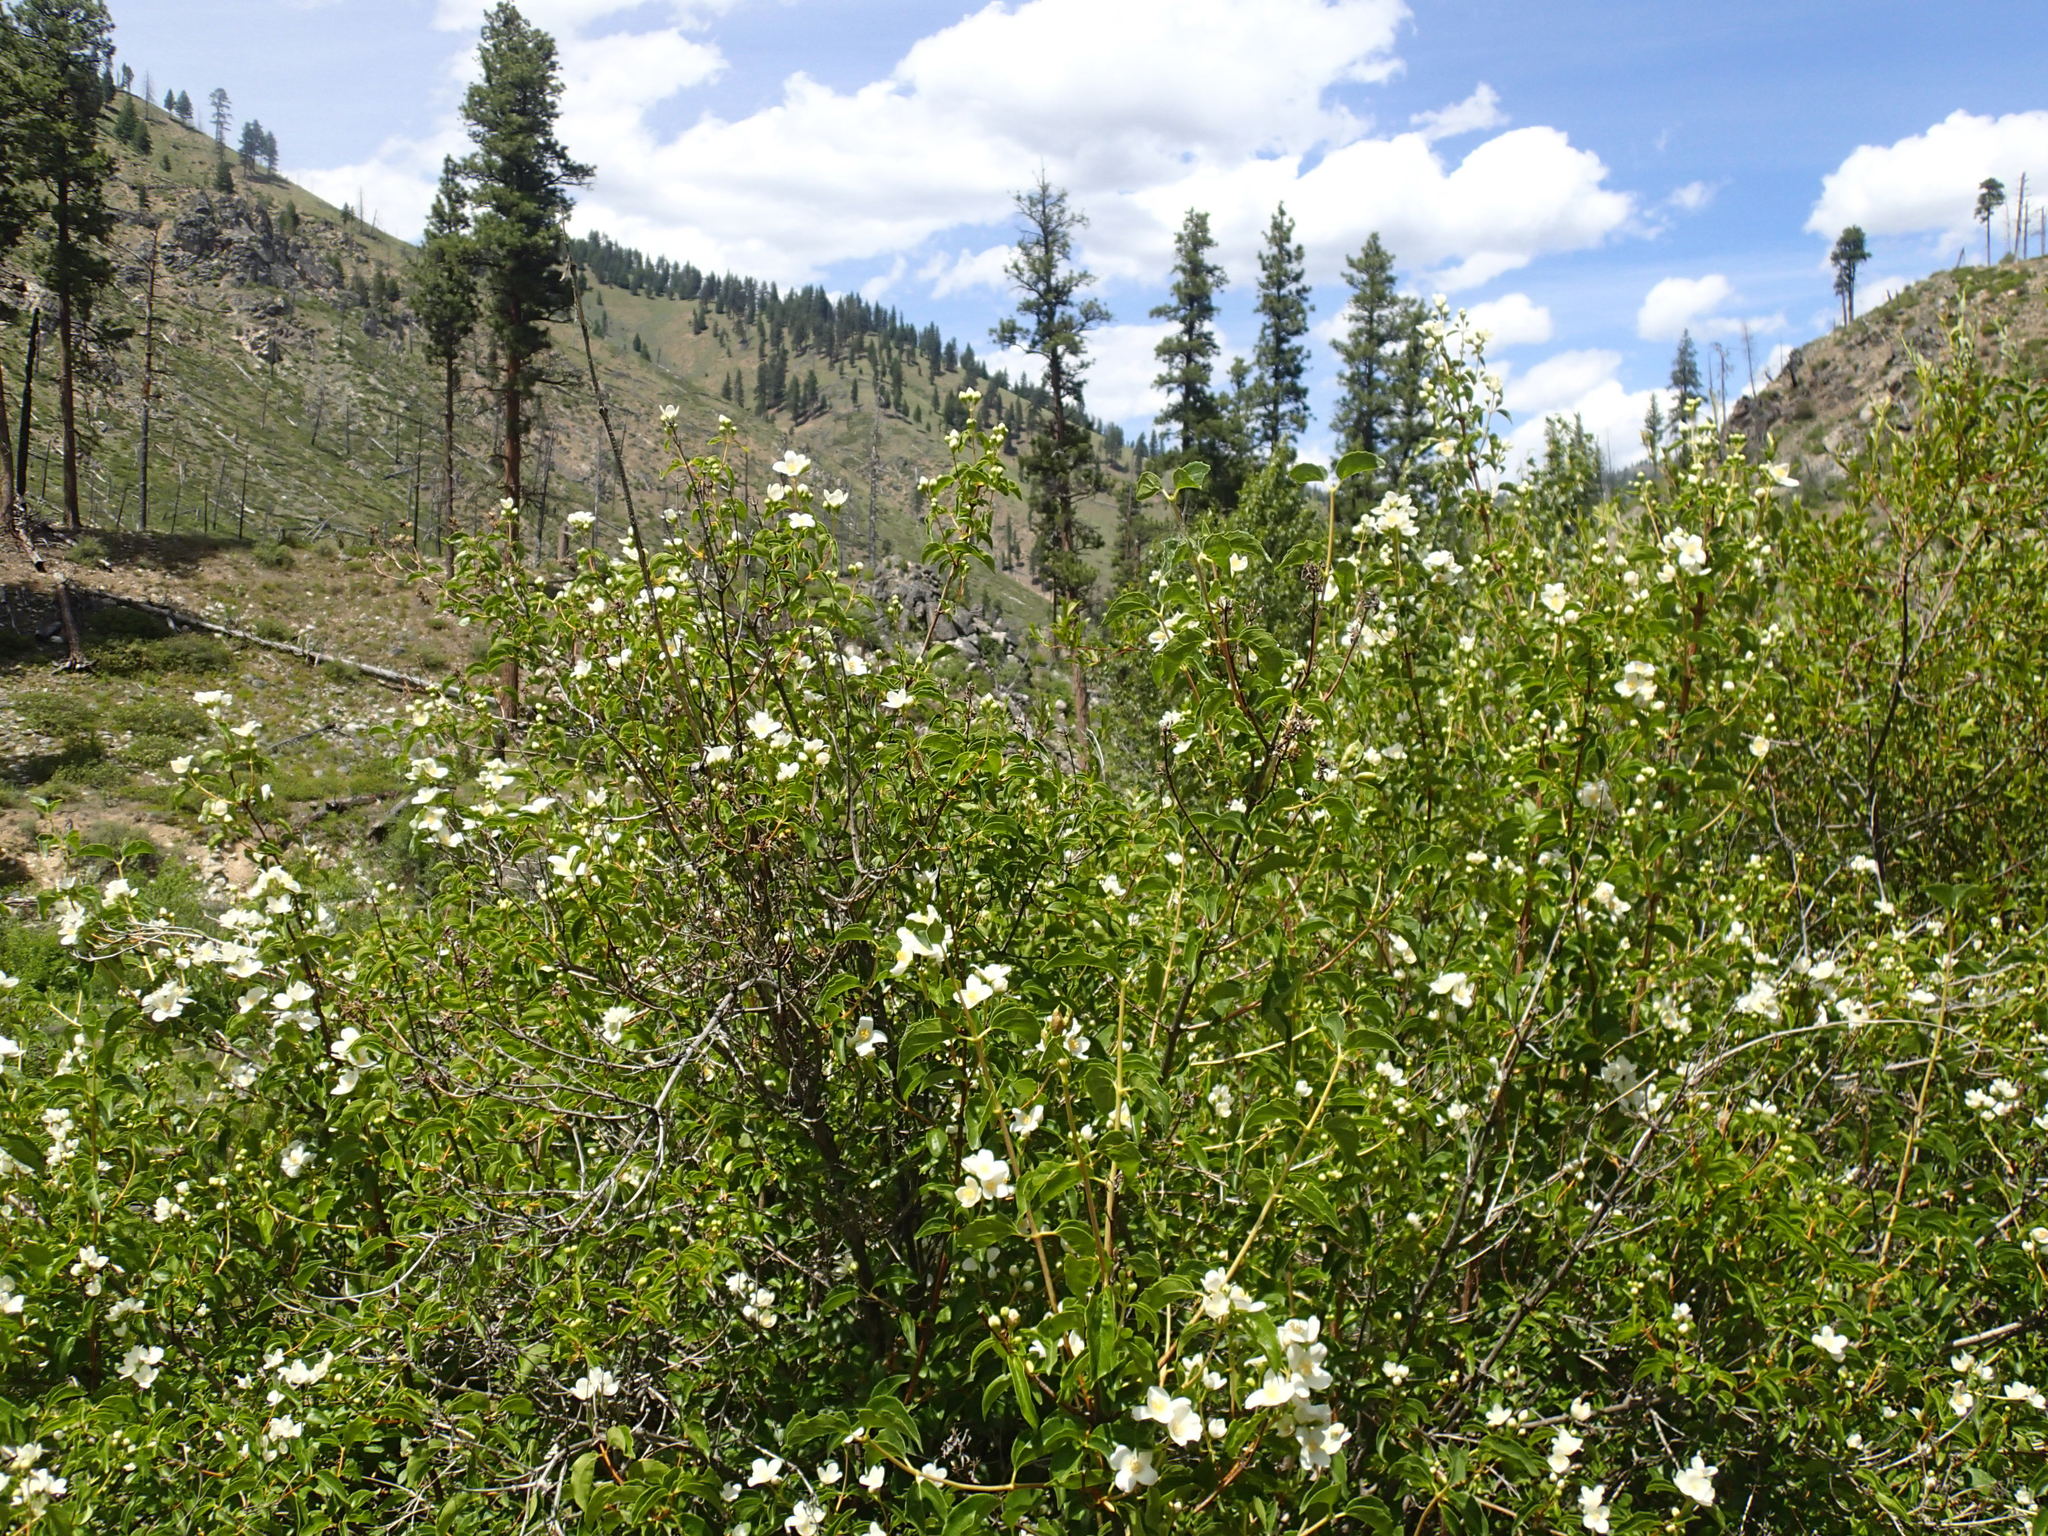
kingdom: Plantae
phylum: Tracheophyta
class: Magnoliopsida
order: Cornales
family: Hydrangeaceae
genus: Philadelphus
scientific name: Philadelphus lewisii
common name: Lewis's mock orange
